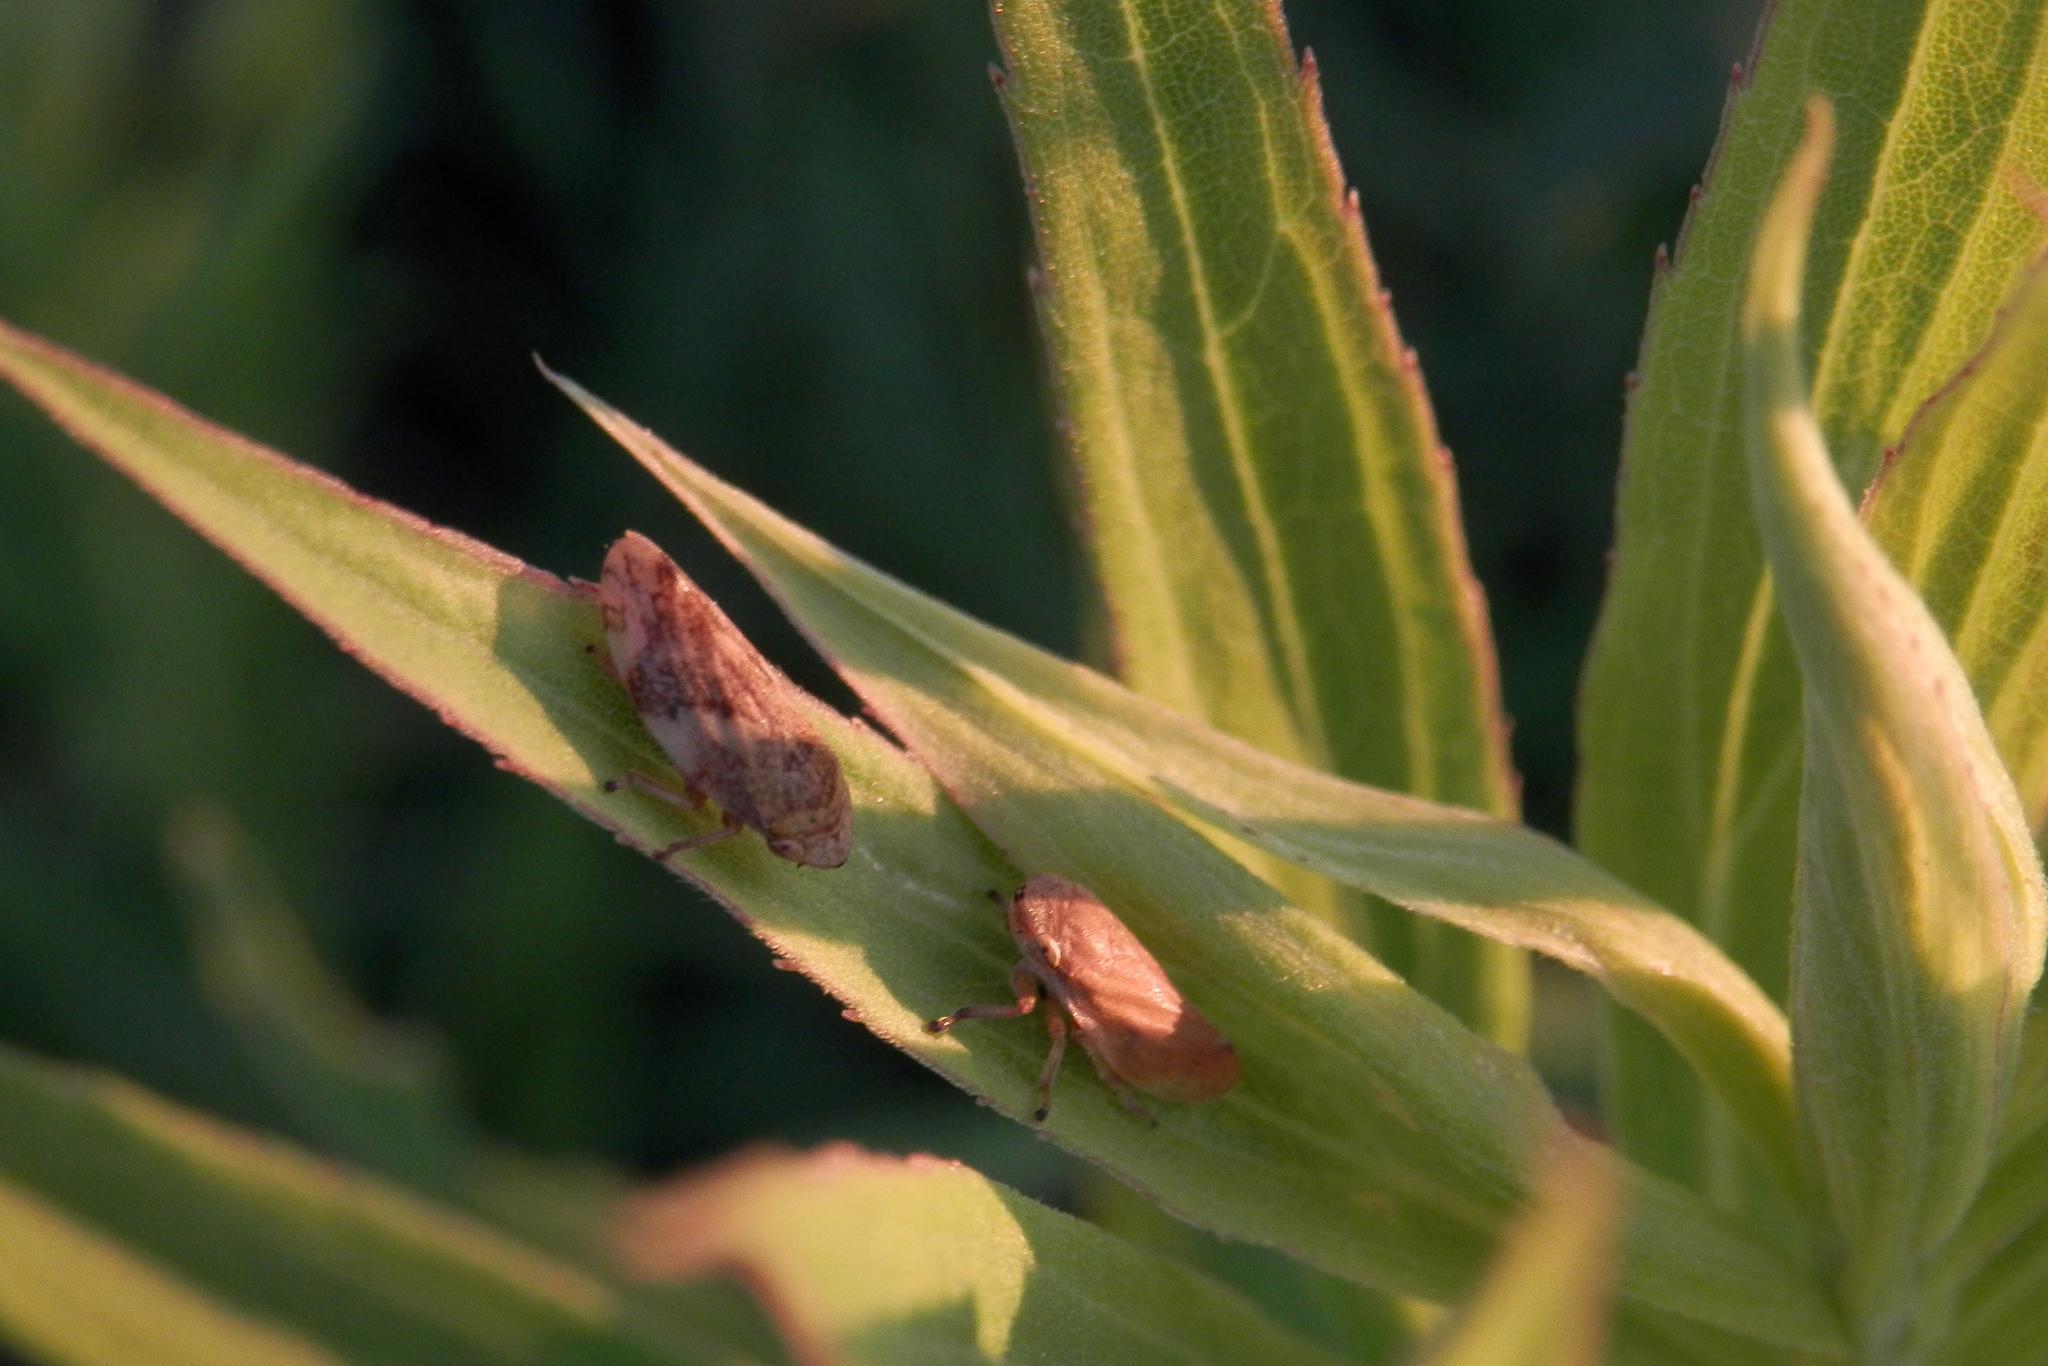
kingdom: Animalia
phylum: Arthropoda
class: Insecta
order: Hemiptera
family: Aphrophoridae
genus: Philaenus
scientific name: Philaenus spumarius
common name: Meadow spittlebug
